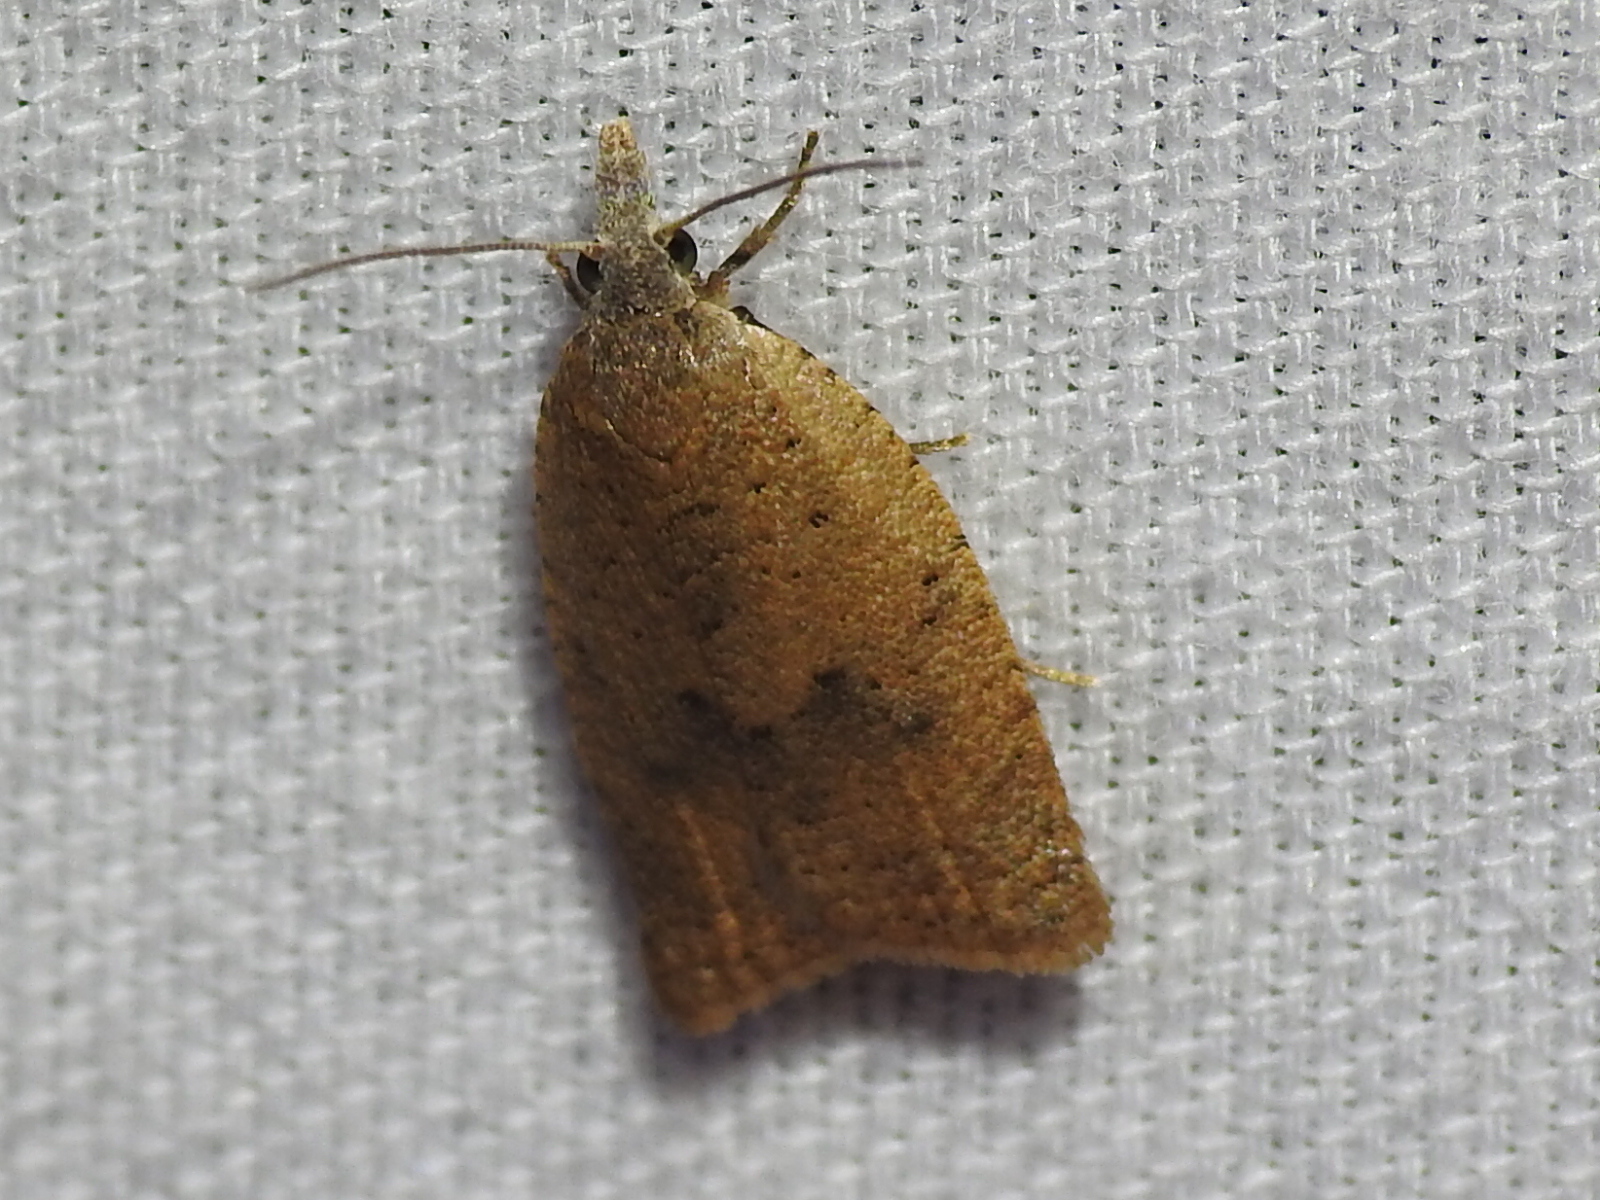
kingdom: Animalia
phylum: Arthropoda
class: Insecta
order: Lepidoptera
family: Tortricidae
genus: Sparganothoides
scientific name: Sparganothoides lentiginosana
